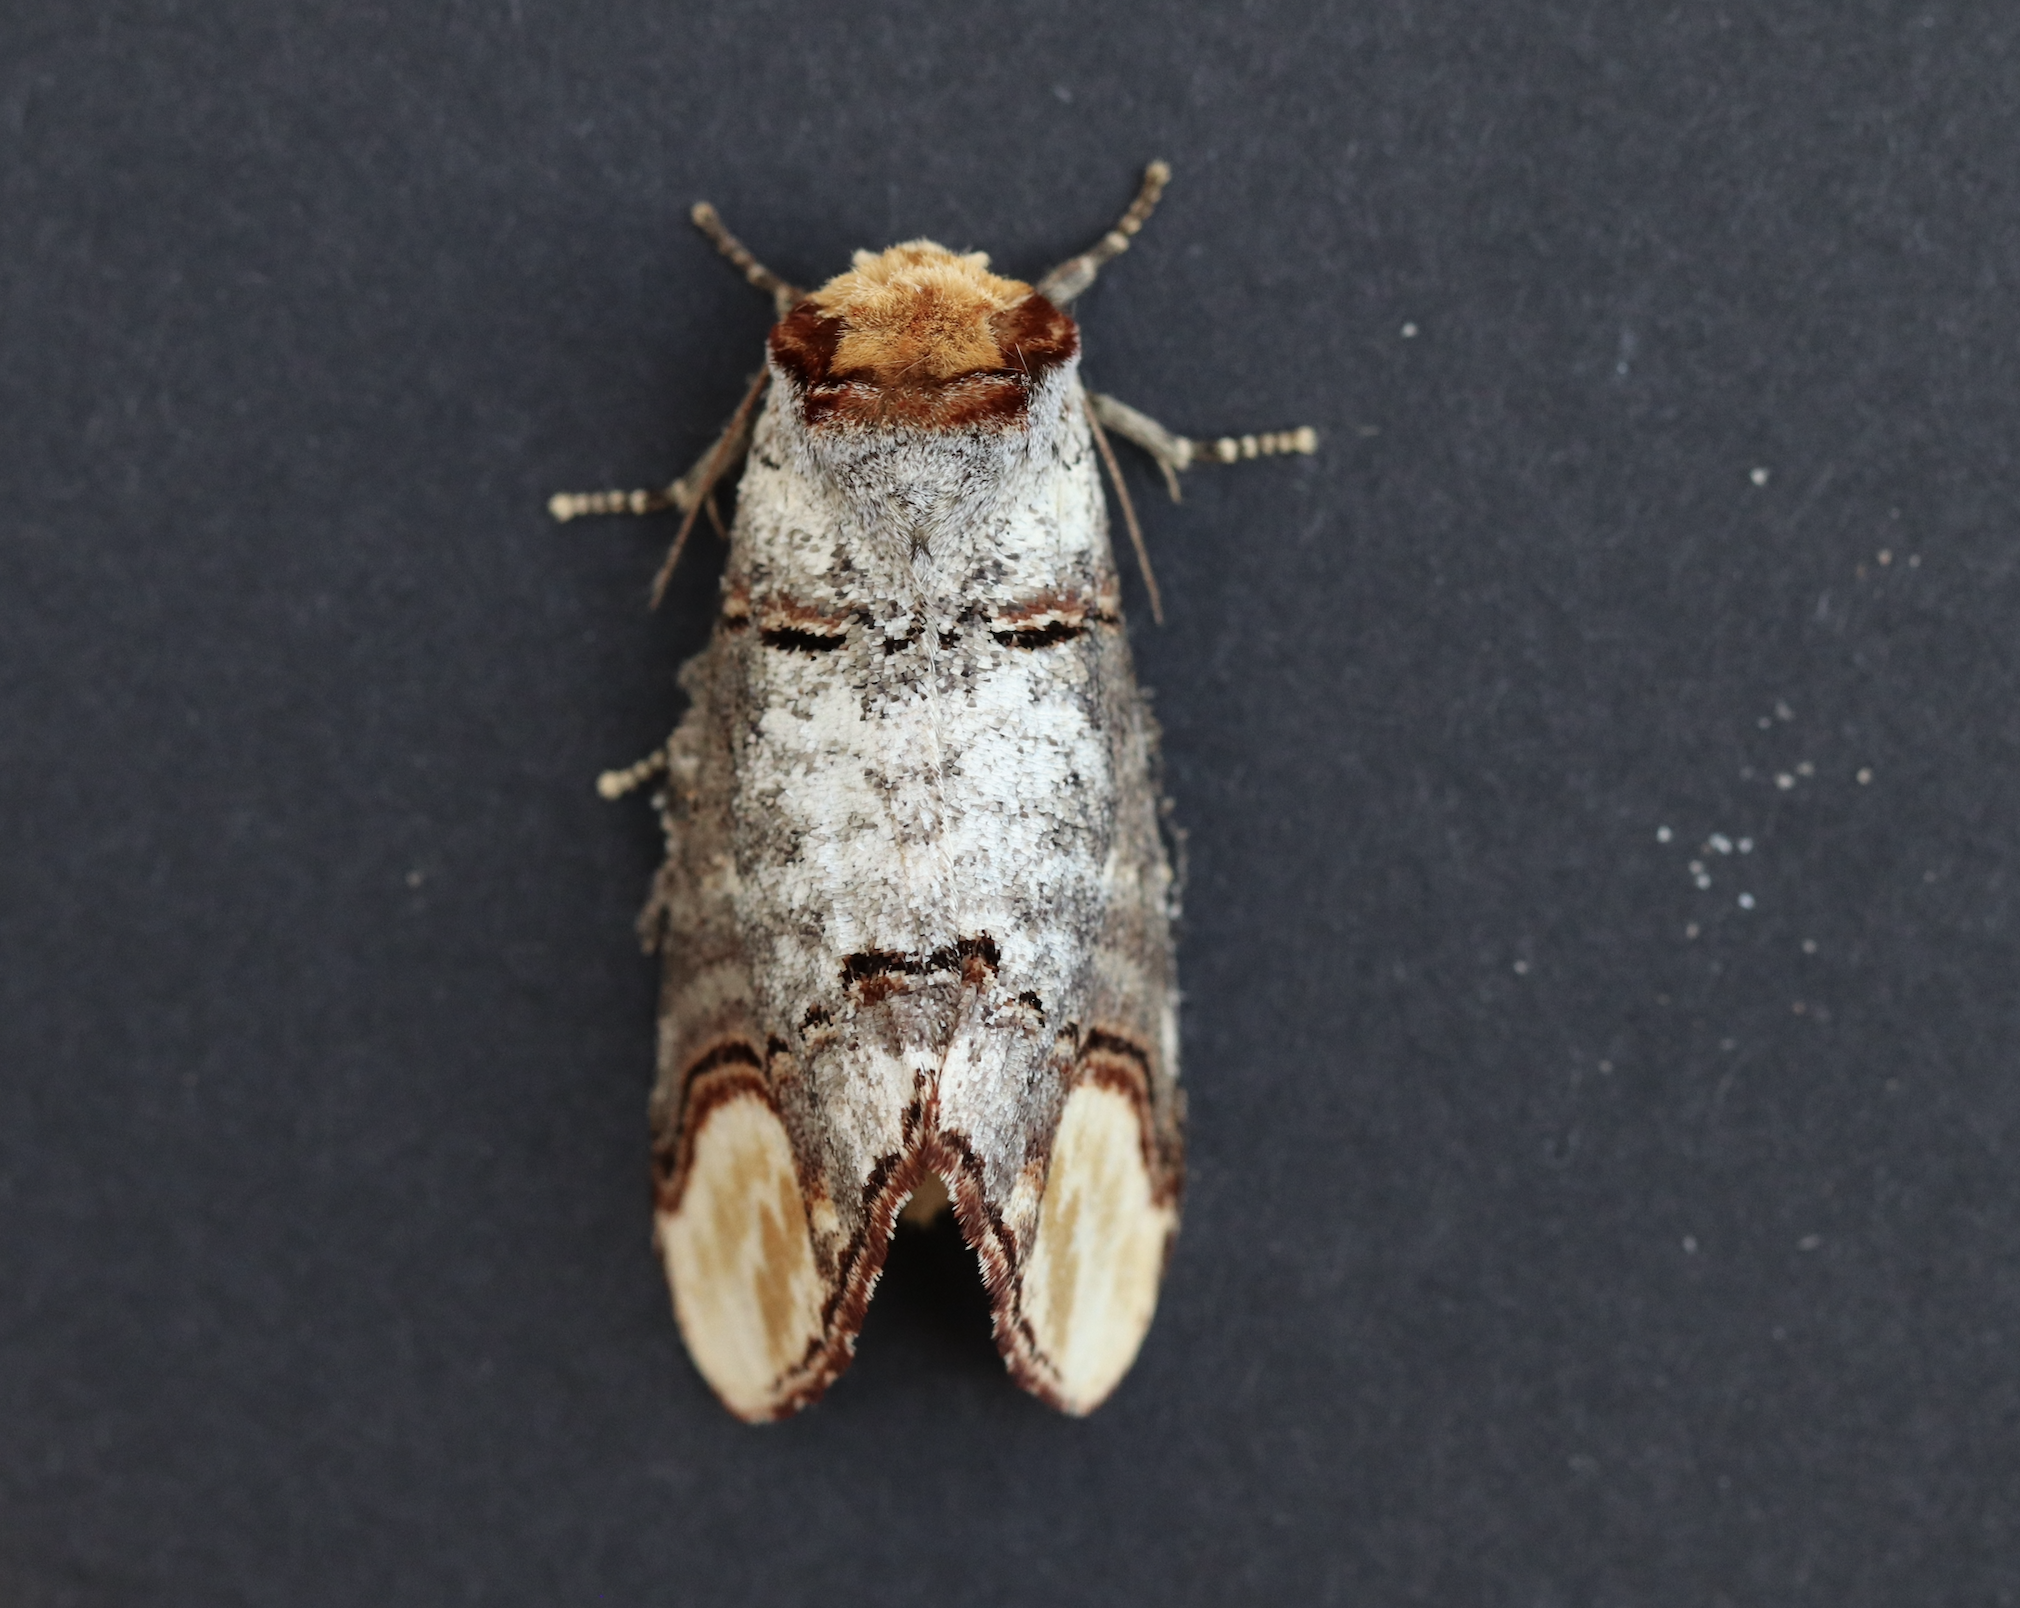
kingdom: Animalia
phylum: Arthropoda
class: Insecta
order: Lepidoptera
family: Notodontidae
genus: Phalera
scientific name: Phalera bucephala
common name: Buff-tip
